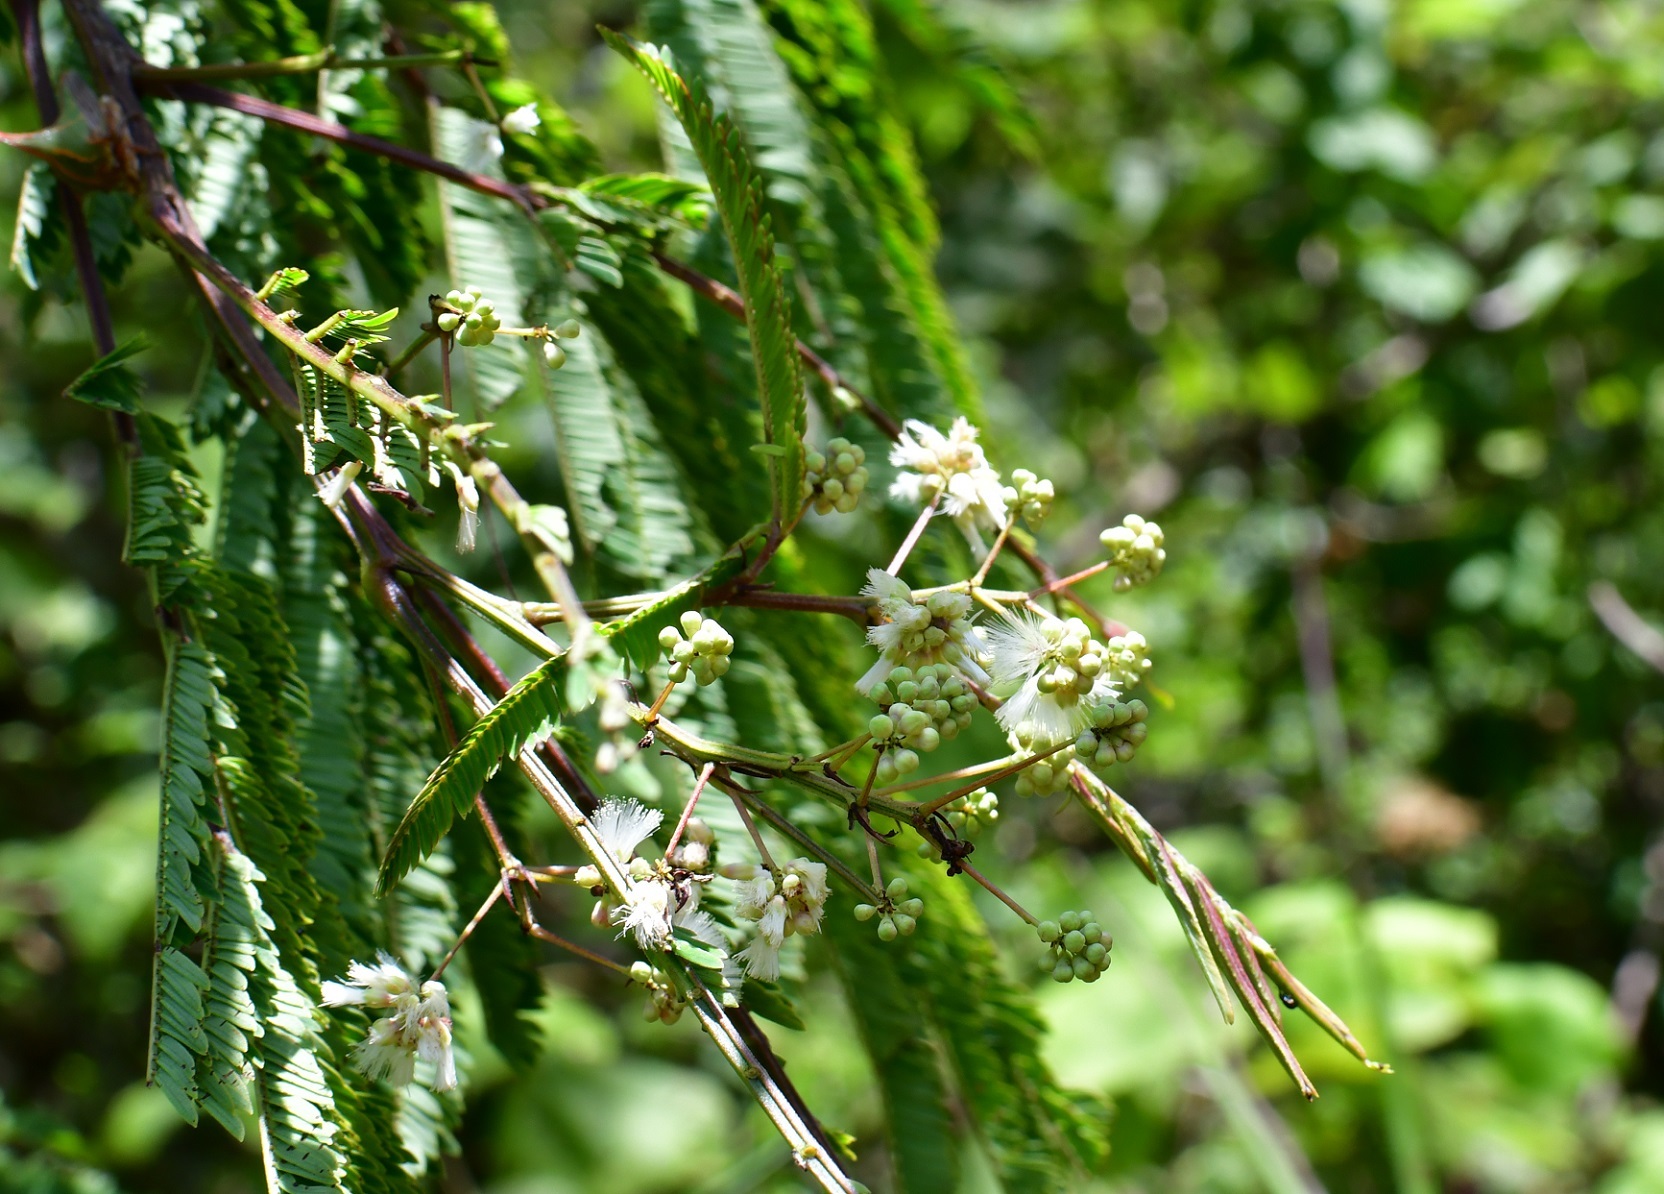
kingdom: Plantae
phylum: Tracheophyta
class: Magnoliopsida
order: Fabales
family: Fabaceae
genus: Acaciella
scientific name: Acaciella angustissima
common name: Prairie acacia
